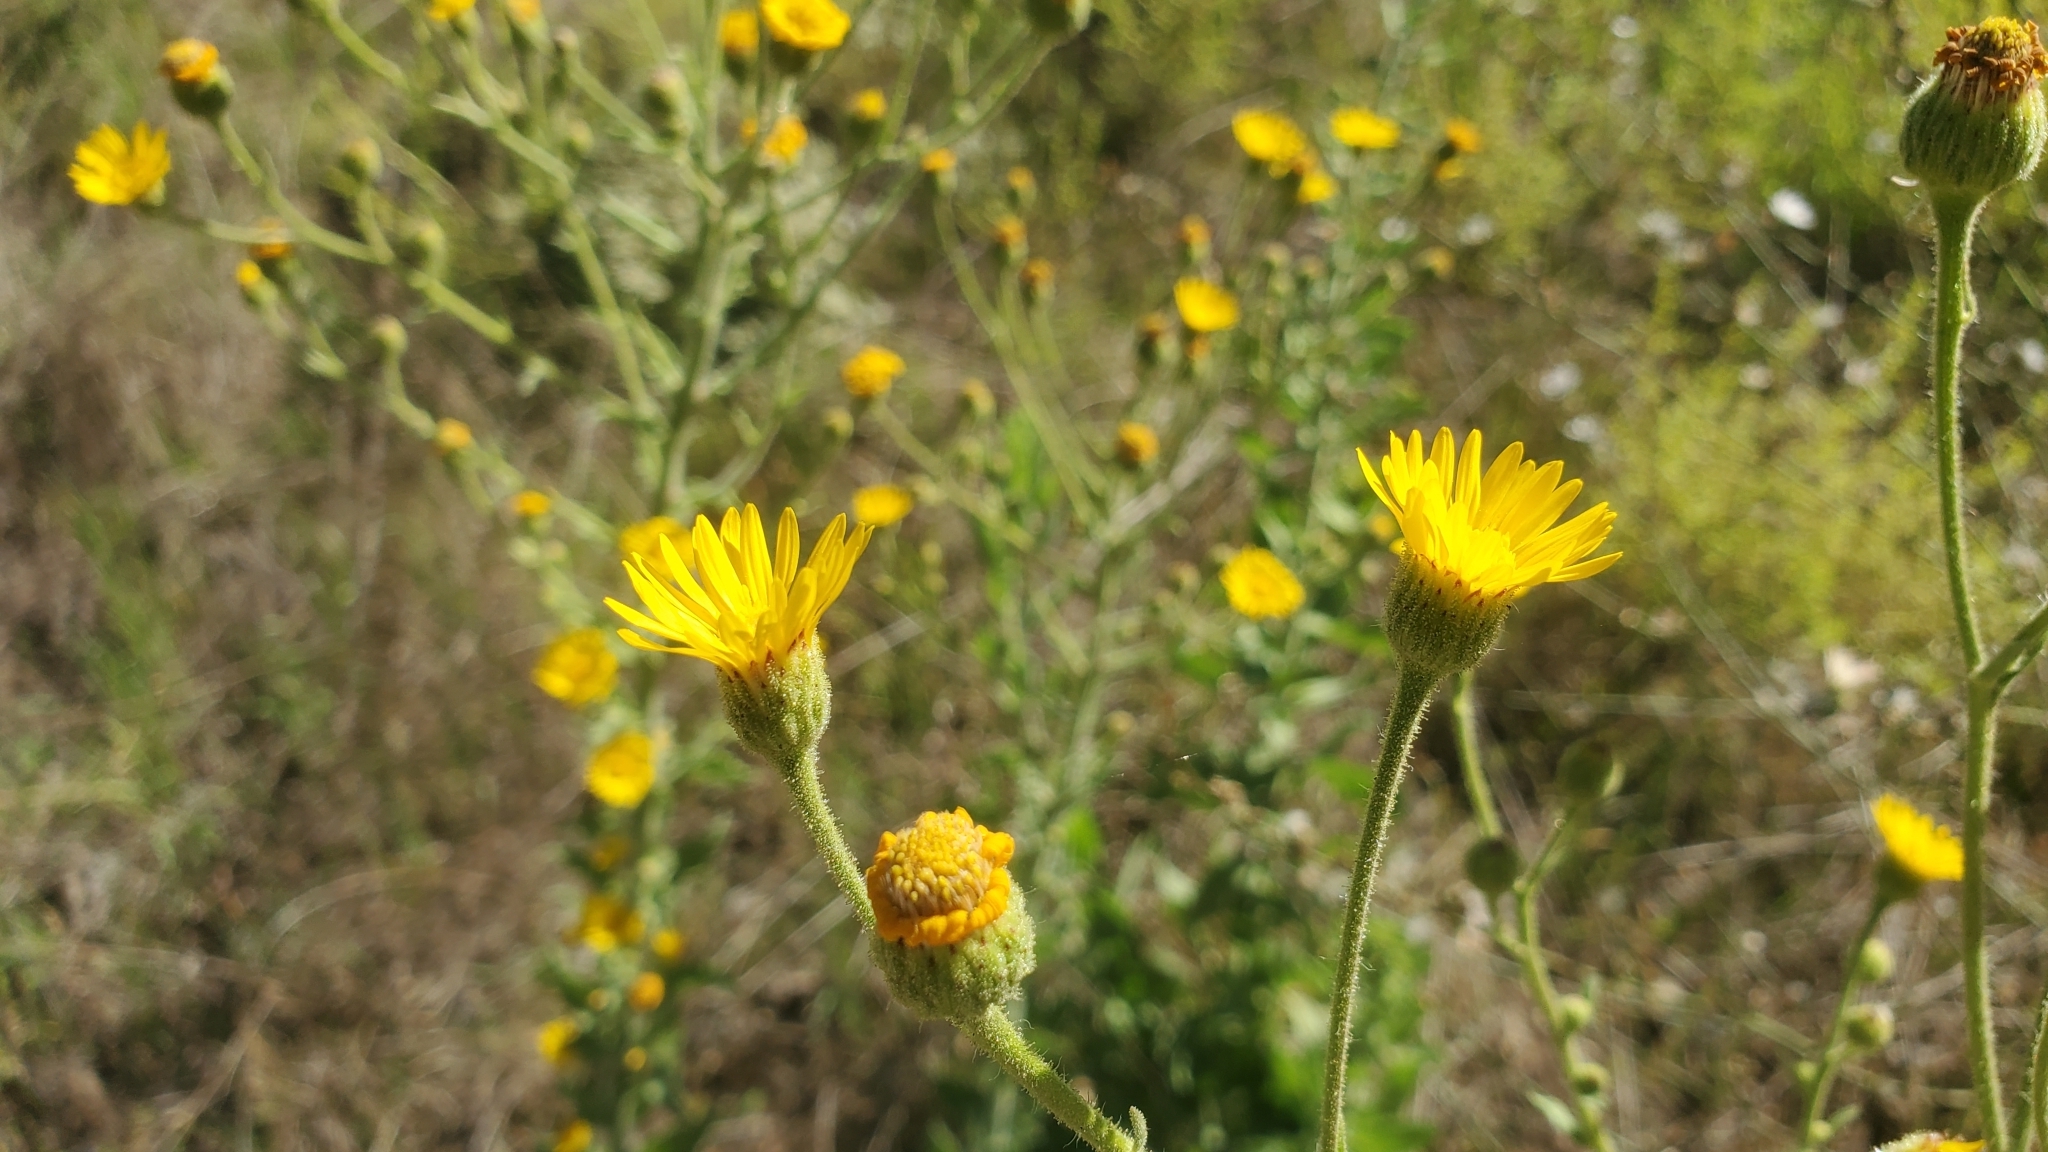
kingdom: Plantae
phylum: Tracheophyta
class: Magnoliopsida
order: Asterales
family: Asteraceae
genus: Heterotheca
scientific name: Heterotheca grandiflora
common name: Telegraphweed
